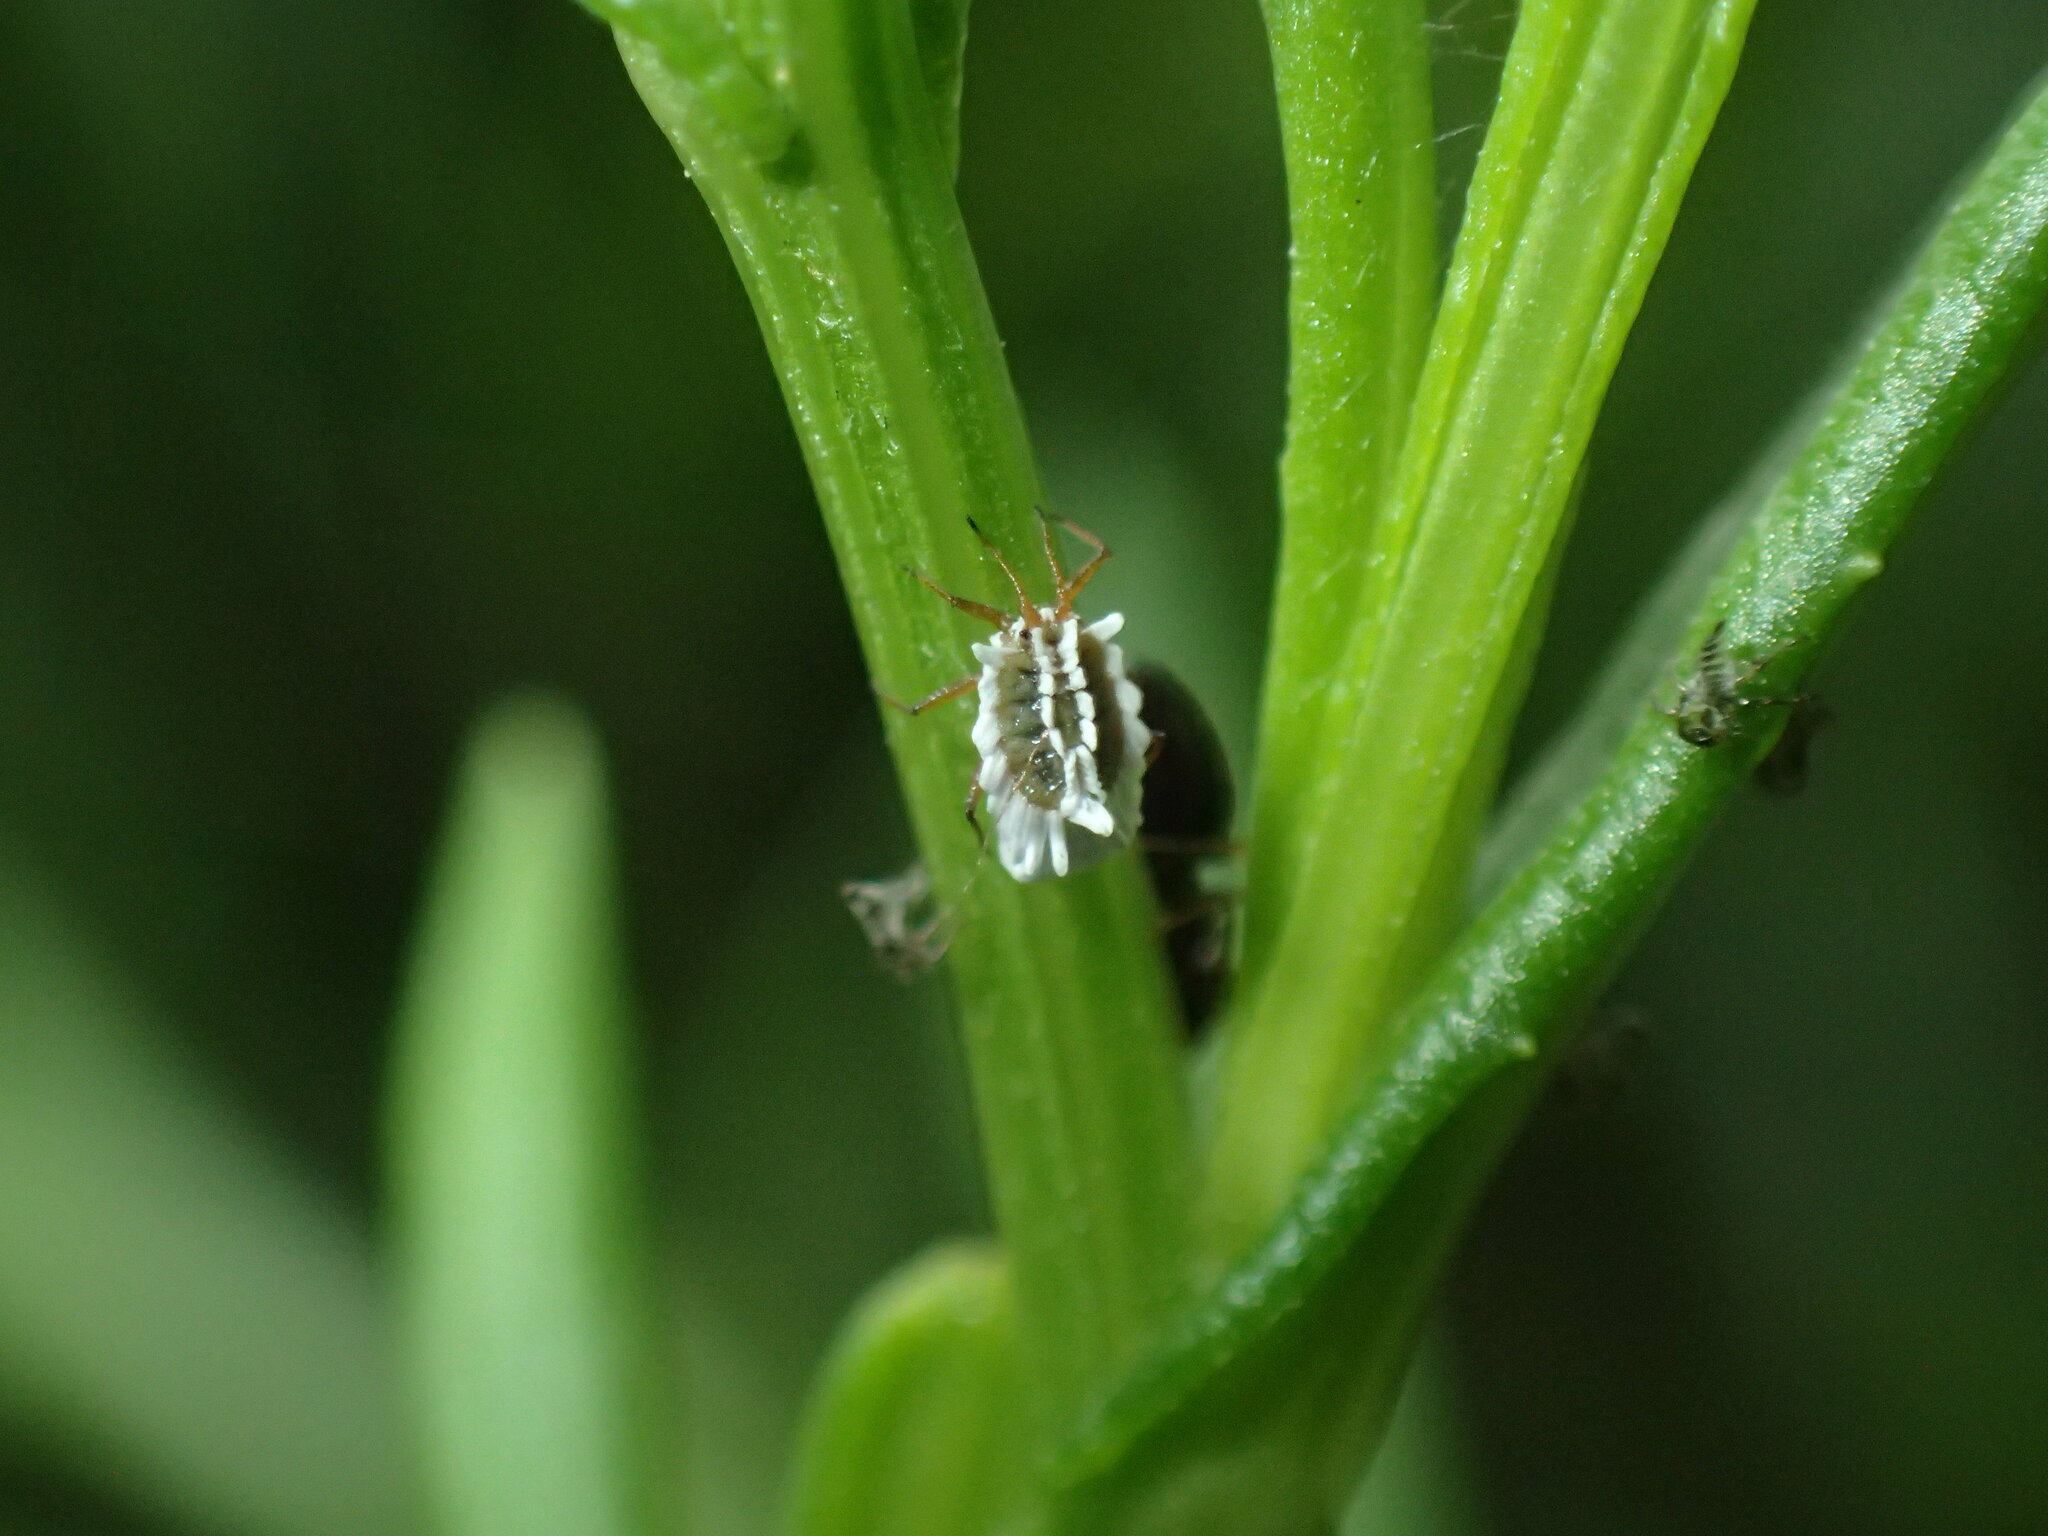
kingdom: Animalia
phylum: Arthropoda
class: Insecta
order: Hemiptera
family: Ortheziidae
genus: Insignorthezia
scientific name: Insignorthezia insignis
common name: Greenhouse orthezia
